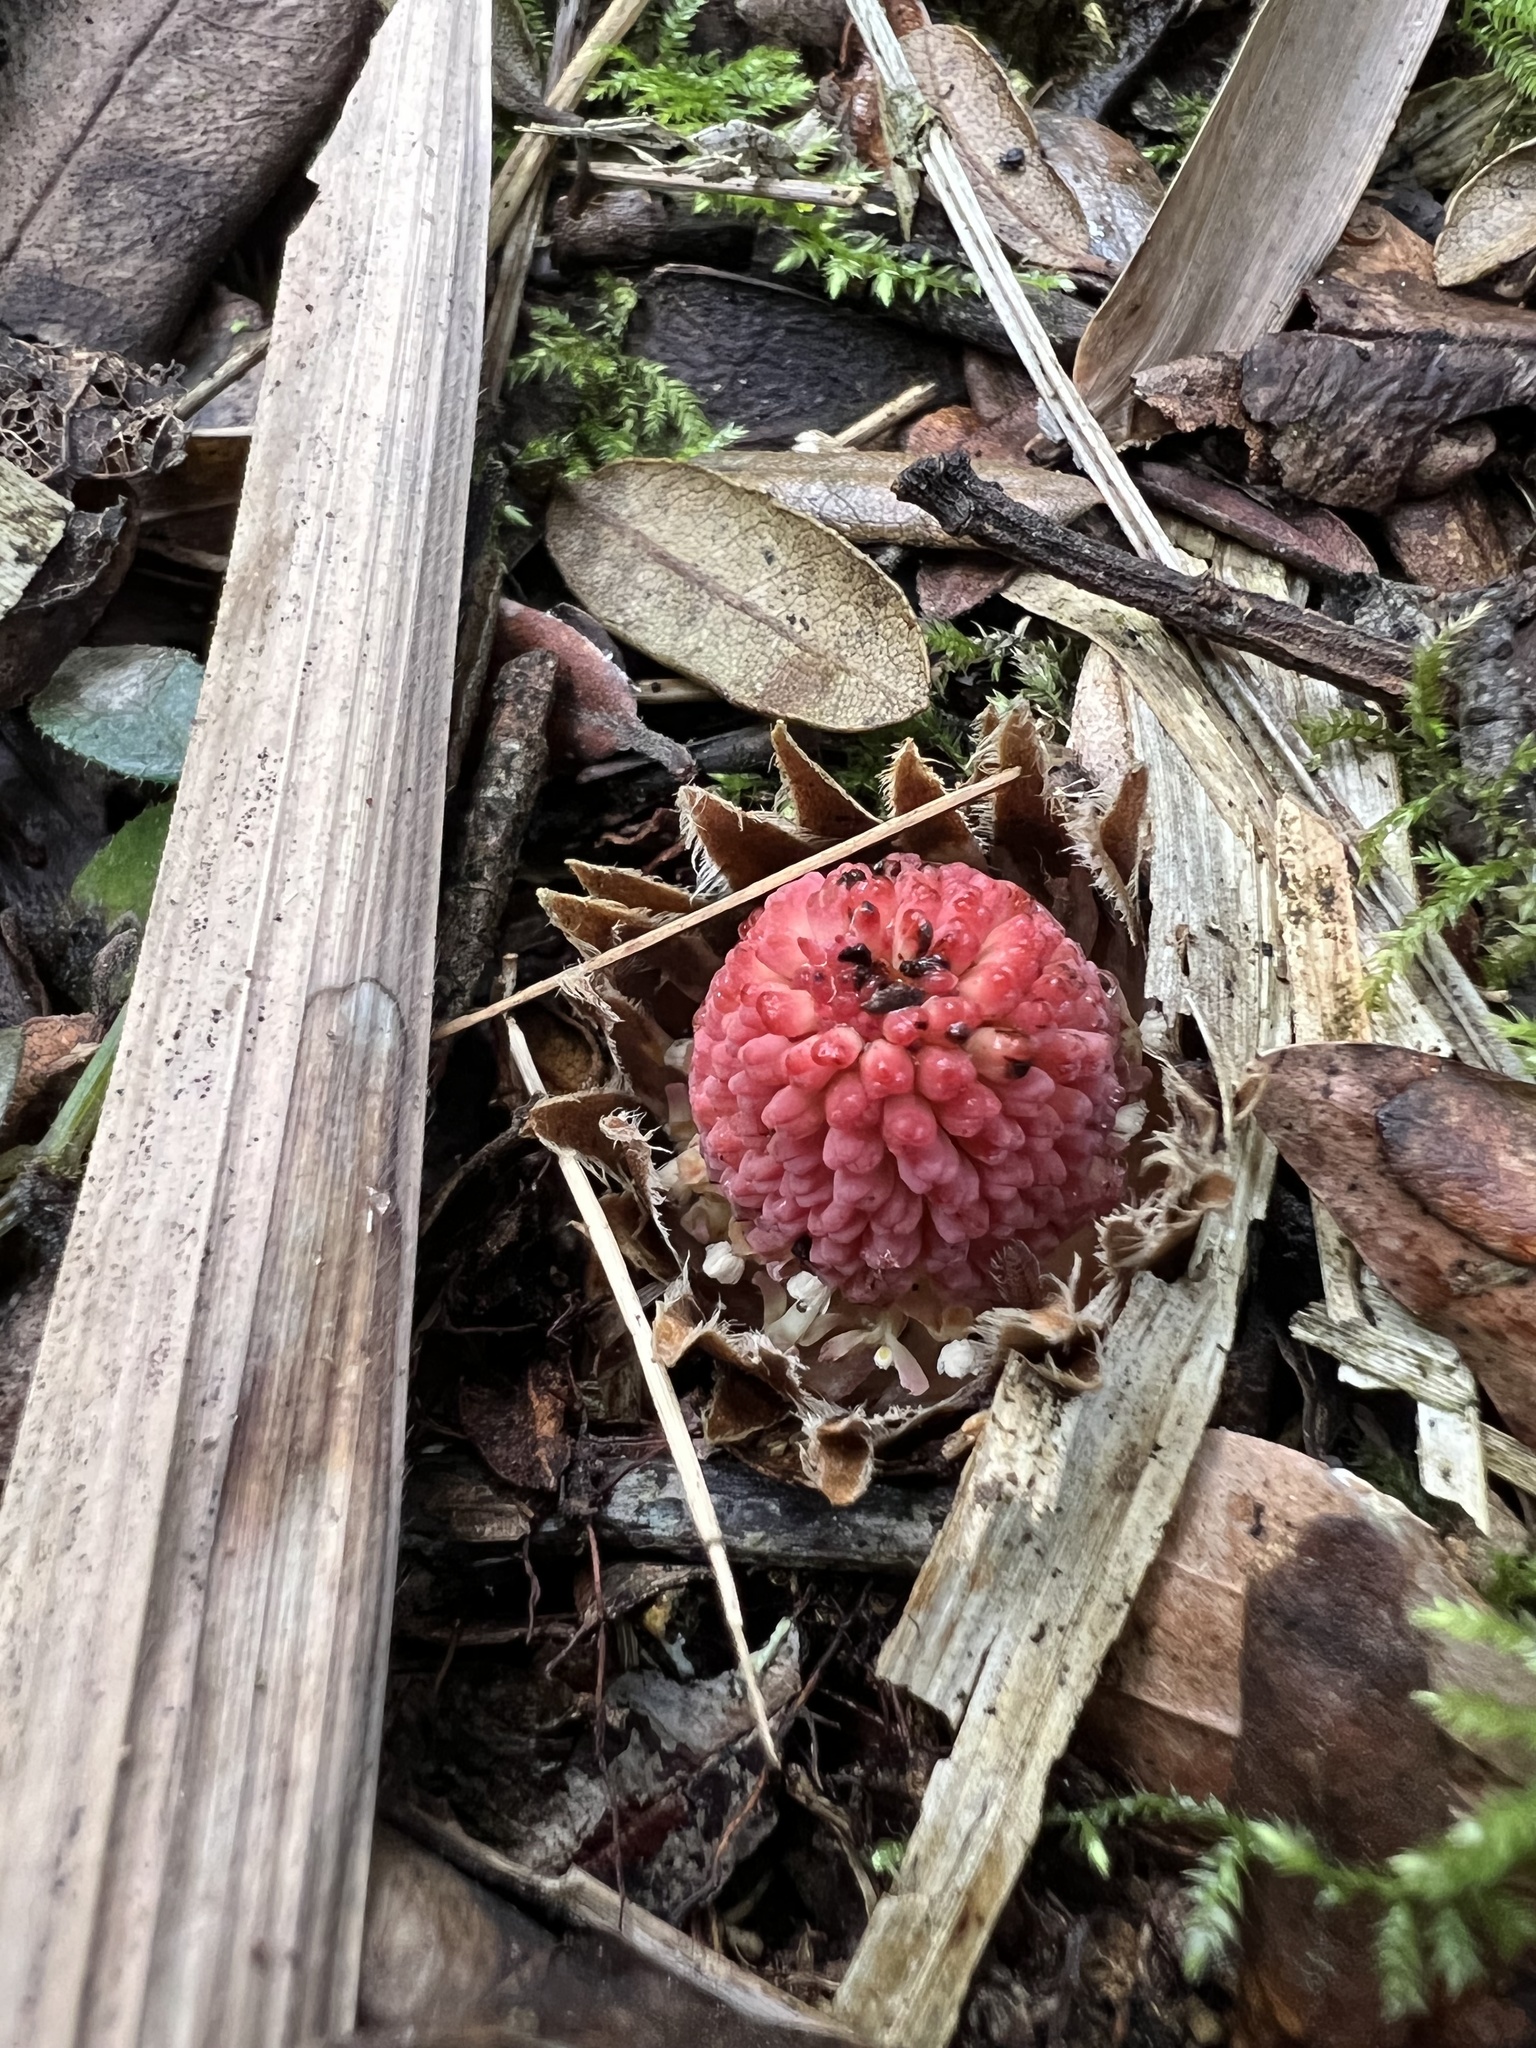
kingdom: Plantae
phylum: Tracheophyta
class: Magnoliopsida
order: Santalales
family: Balanophoraceae
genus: Langsdorffia
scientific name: Langsdorffia hypogaea
